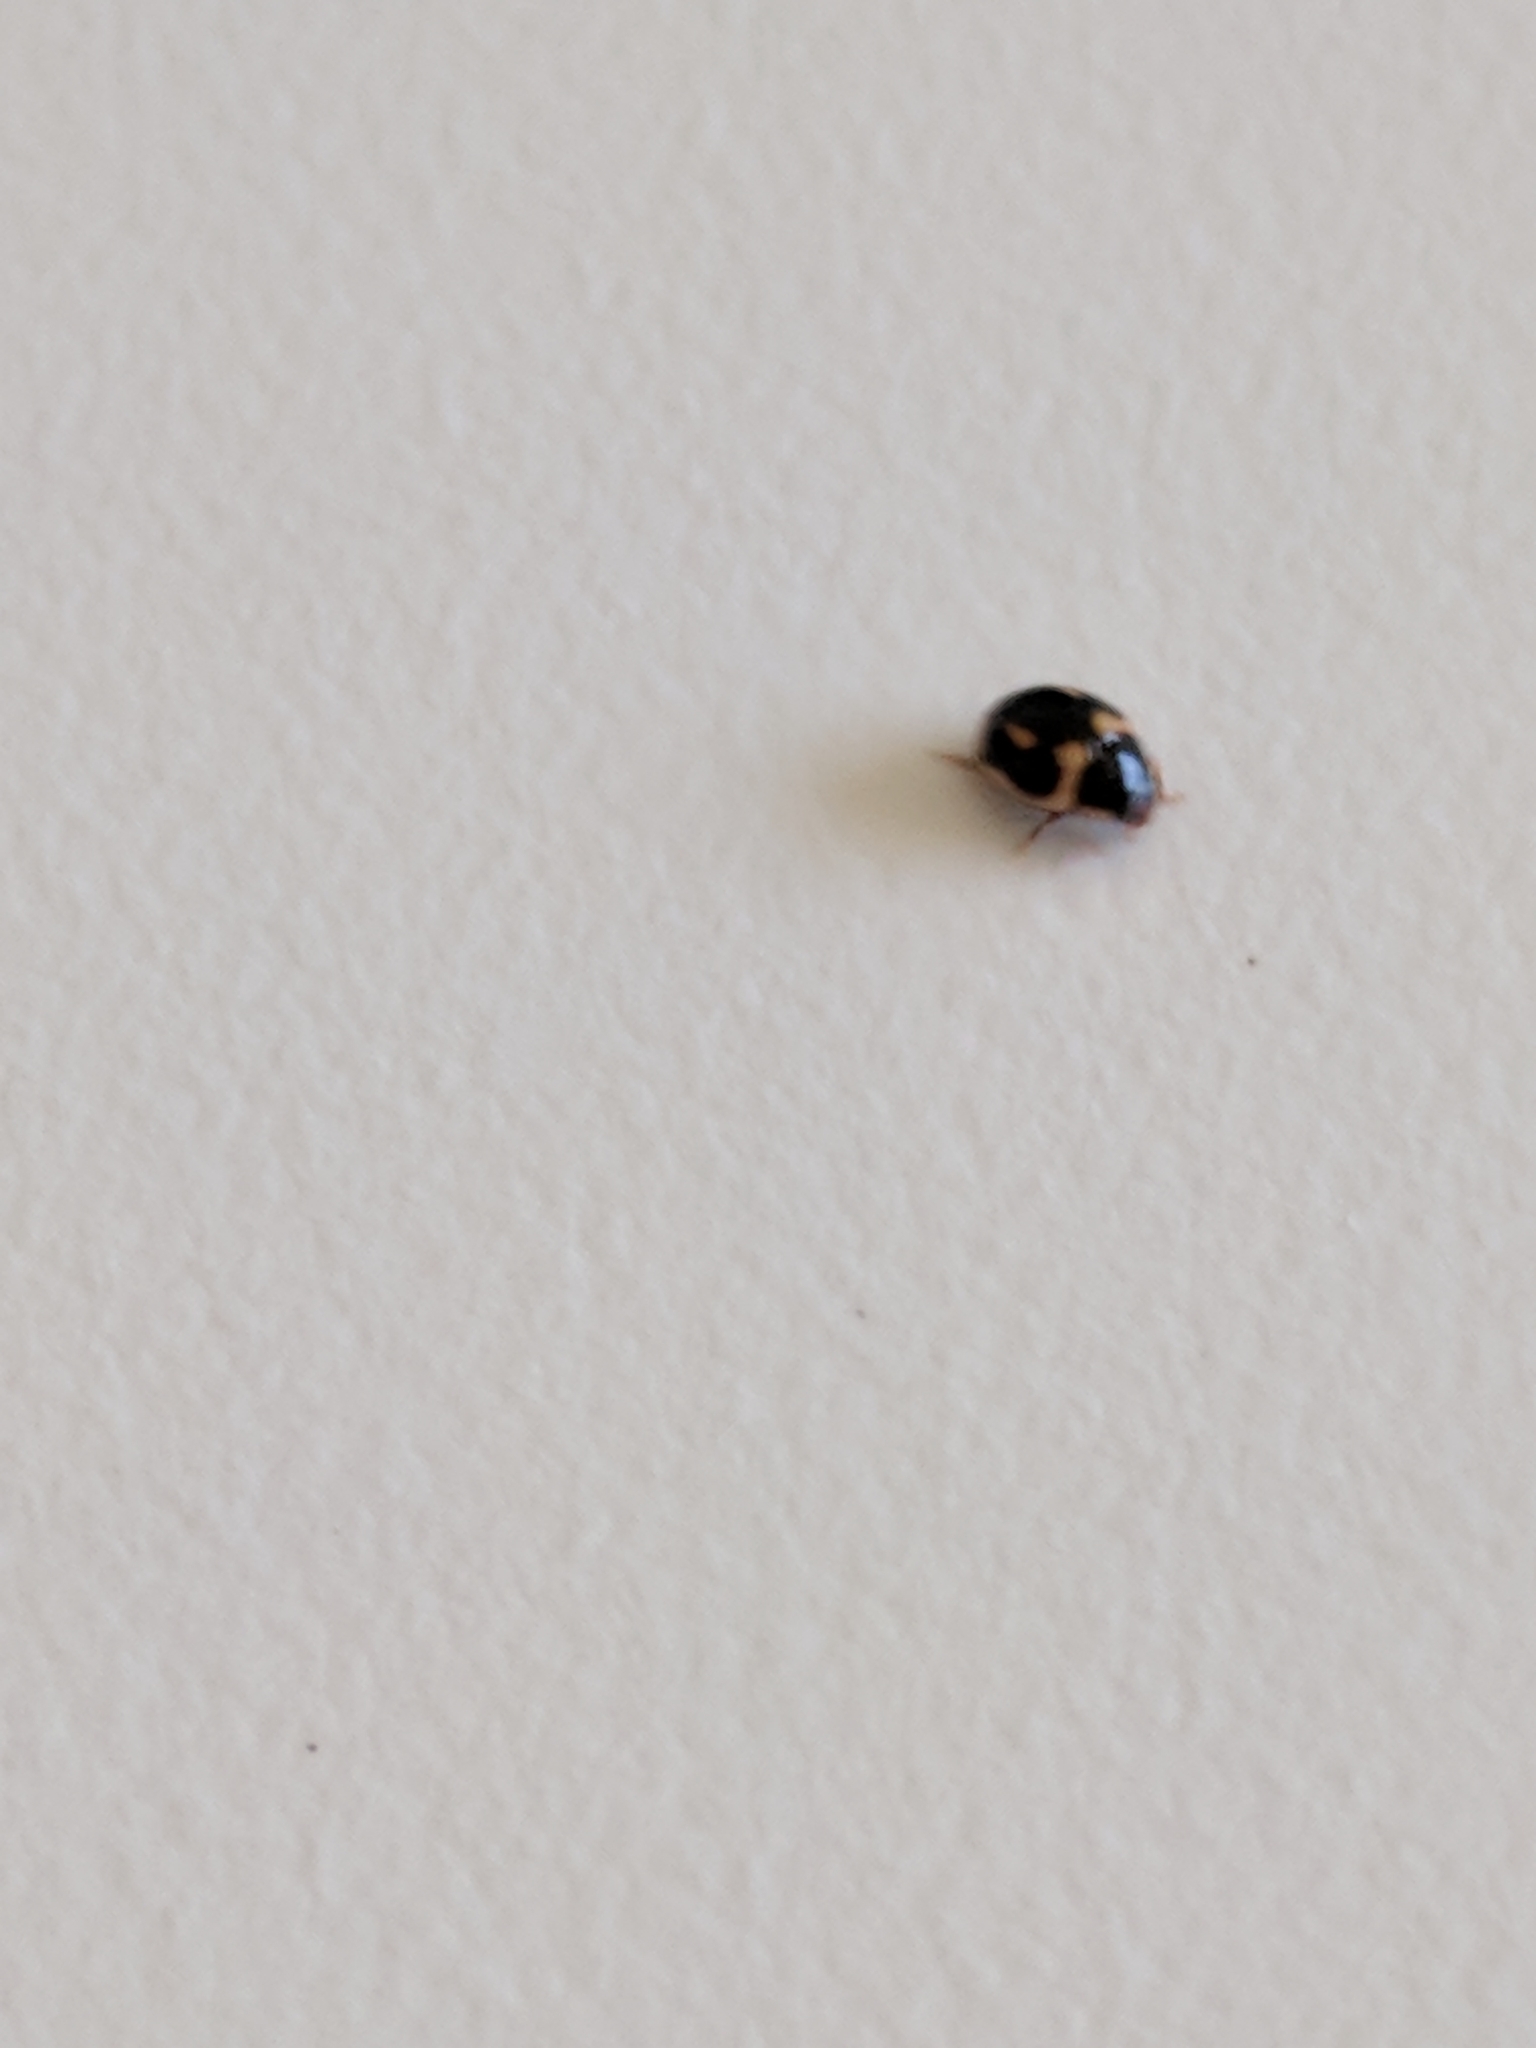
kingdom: Animalia
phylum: Arthropoda
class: Insecta
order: Coleoptera
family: Coccinellidae
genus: Hyperaspis
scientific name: Hyperaspis trifurcata
